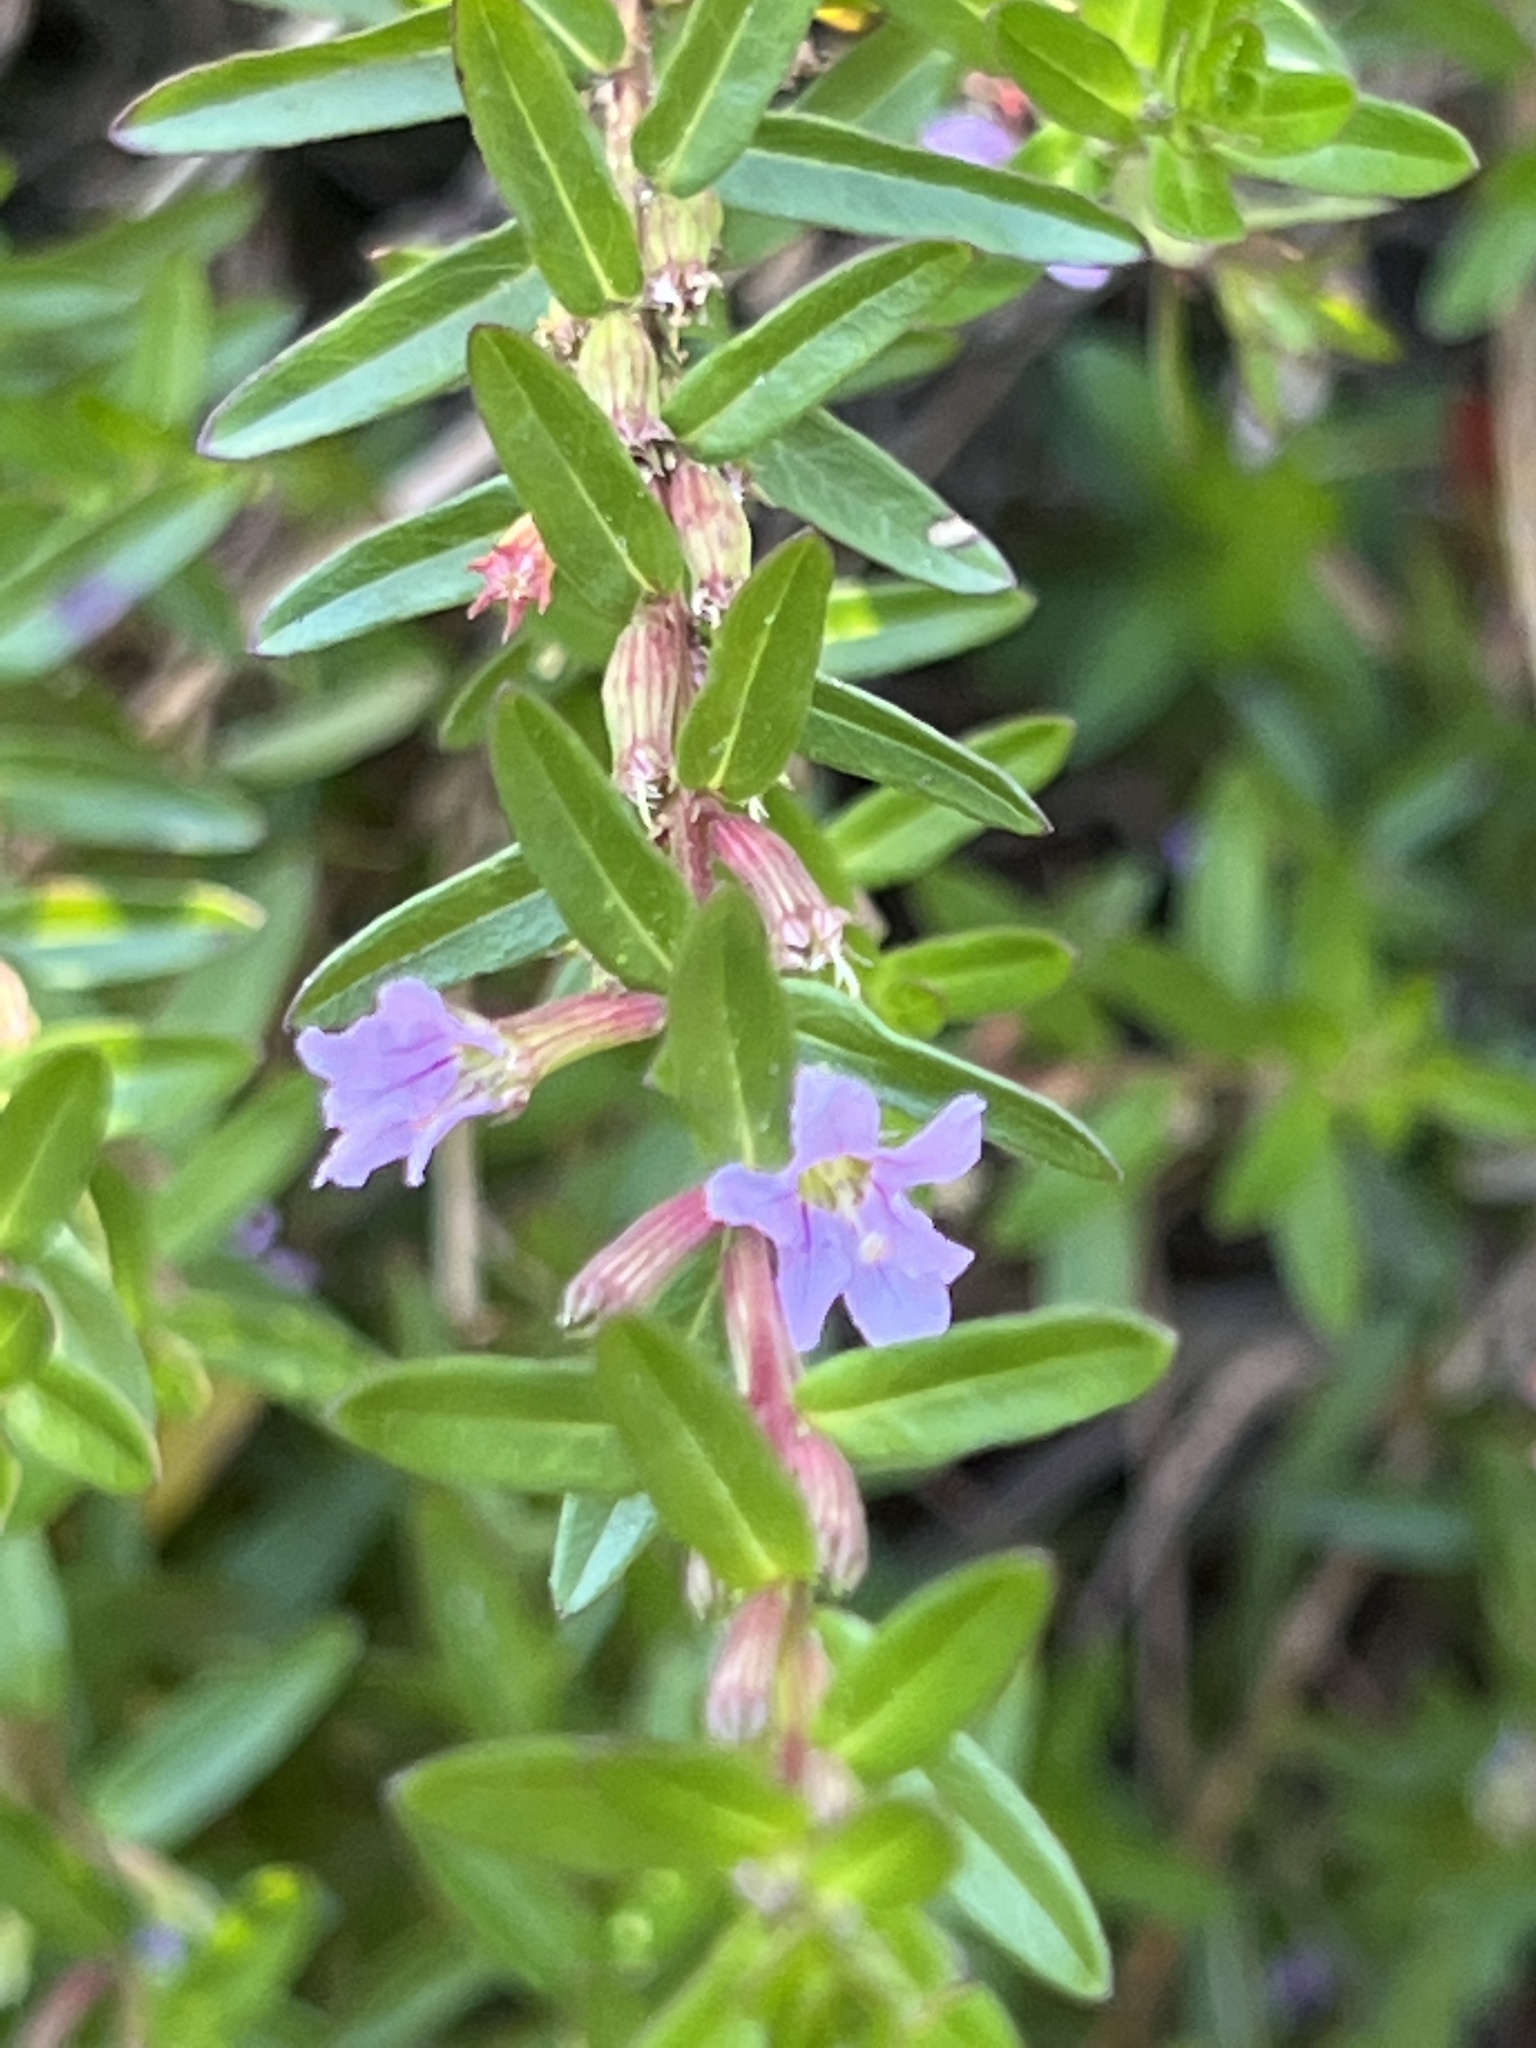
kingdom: Plantae
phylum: Tracheophyta
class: Magnoliopsida
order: Myrtales
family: Lythraceae
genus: Lythrum
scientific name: Lythrum maritimum
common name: Pukamole
